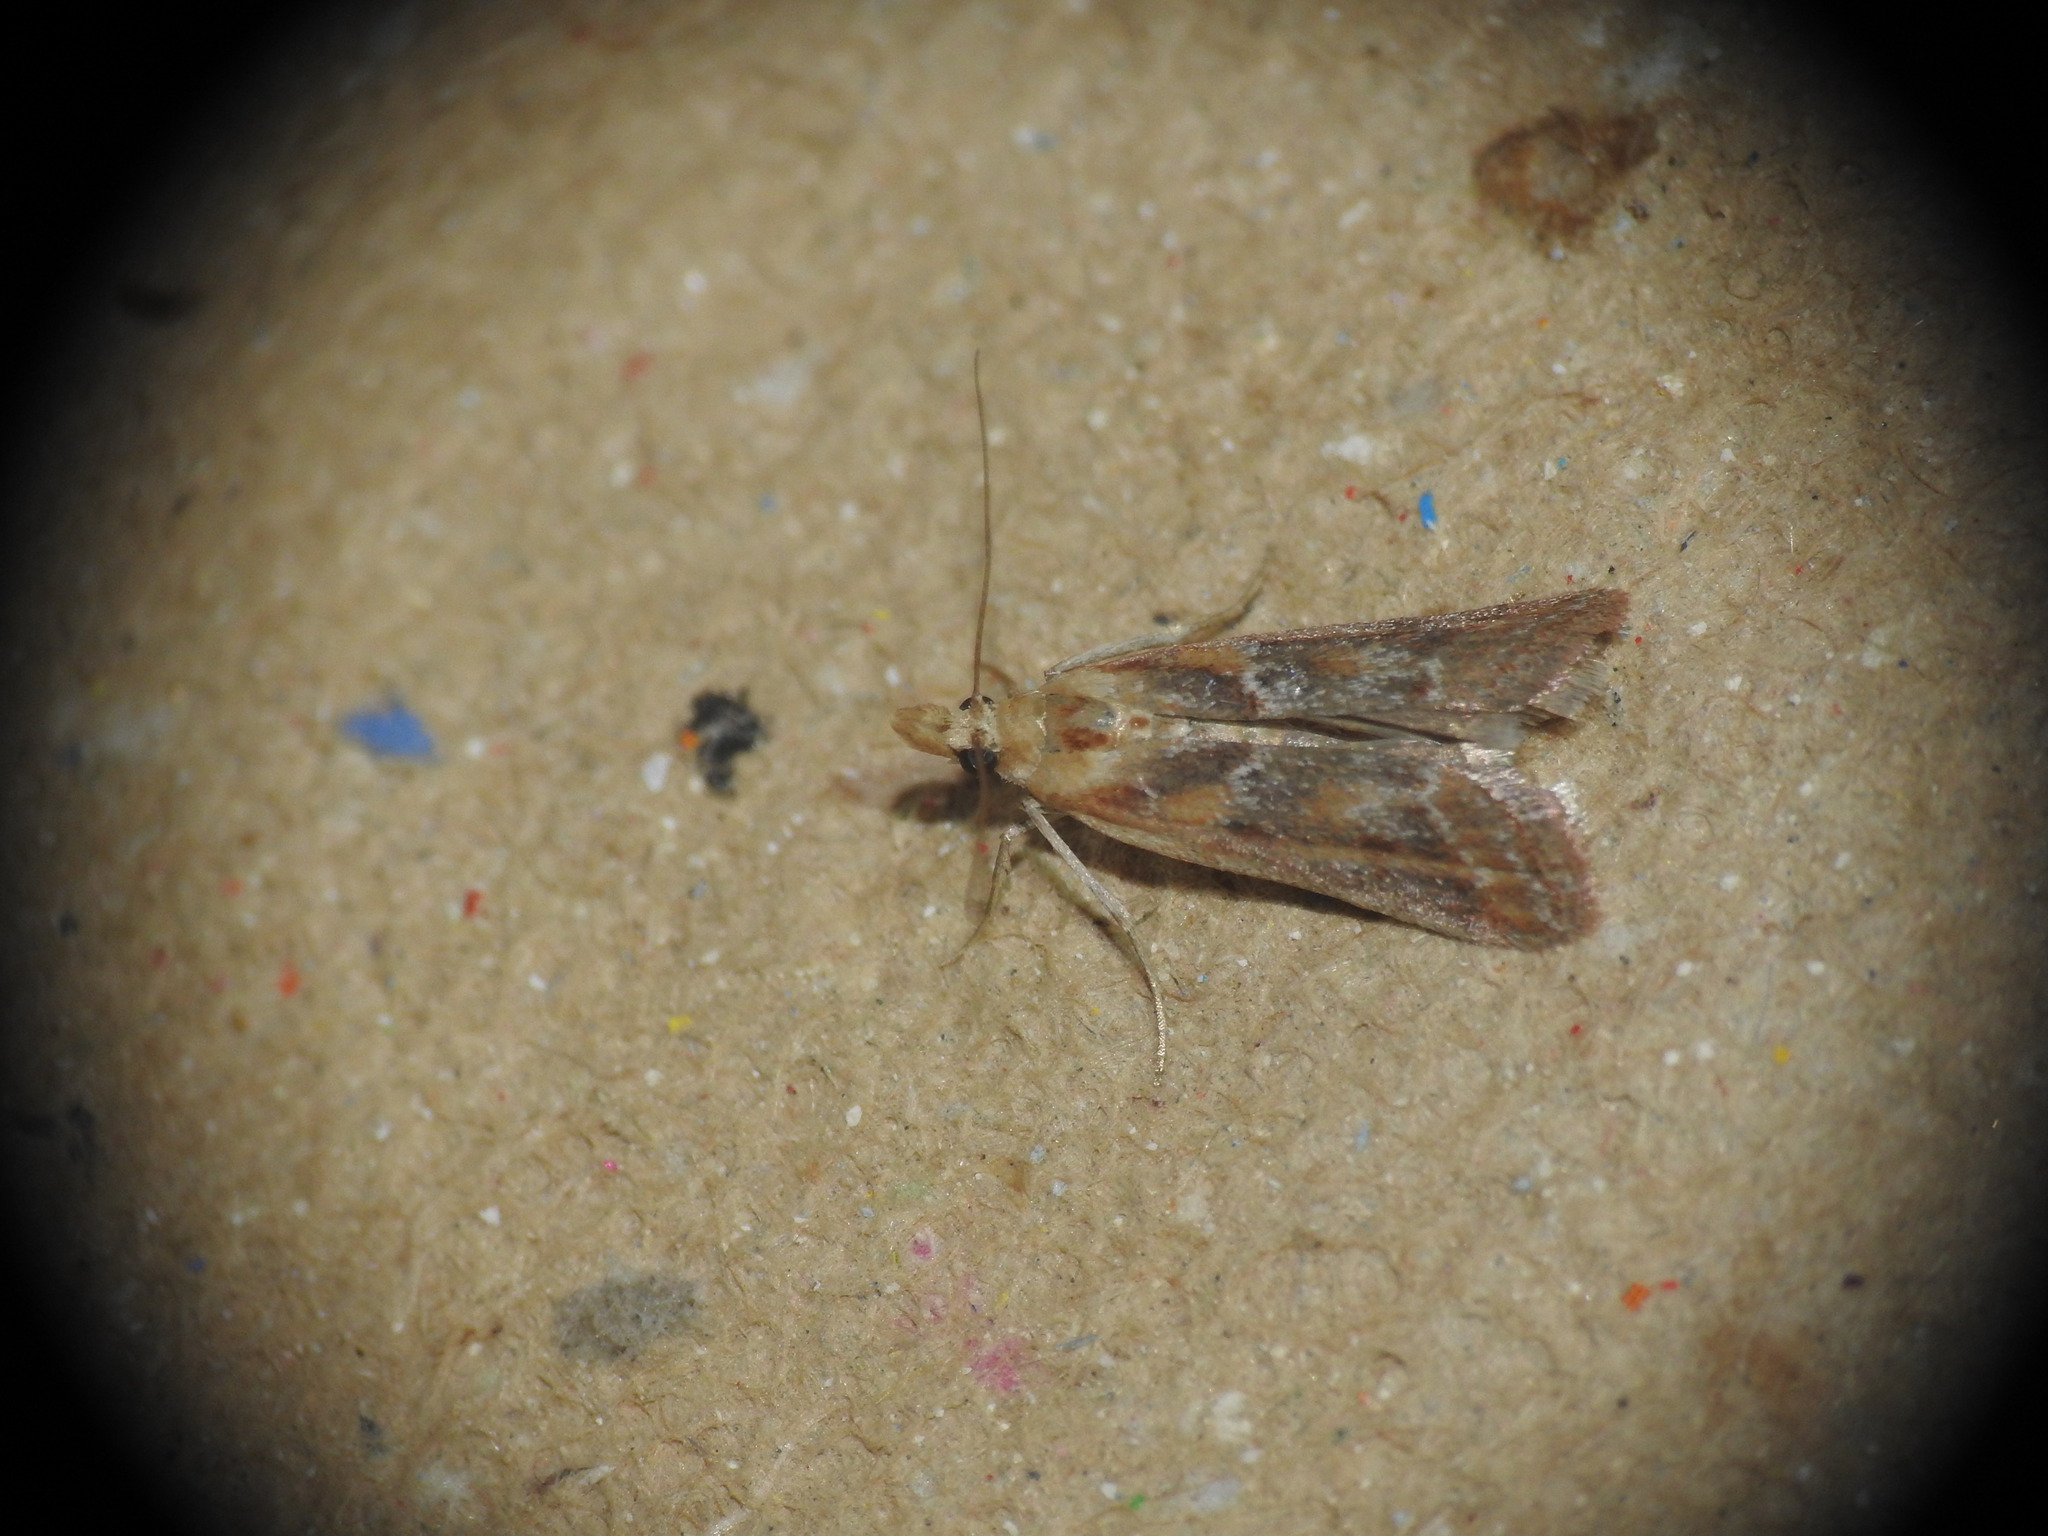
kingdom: Animalia
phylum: Arthropoda
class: Insecta
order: Lepidoptera
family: Pyralidae
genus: Ancylosis
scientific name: Ancylosis cinnamomella
